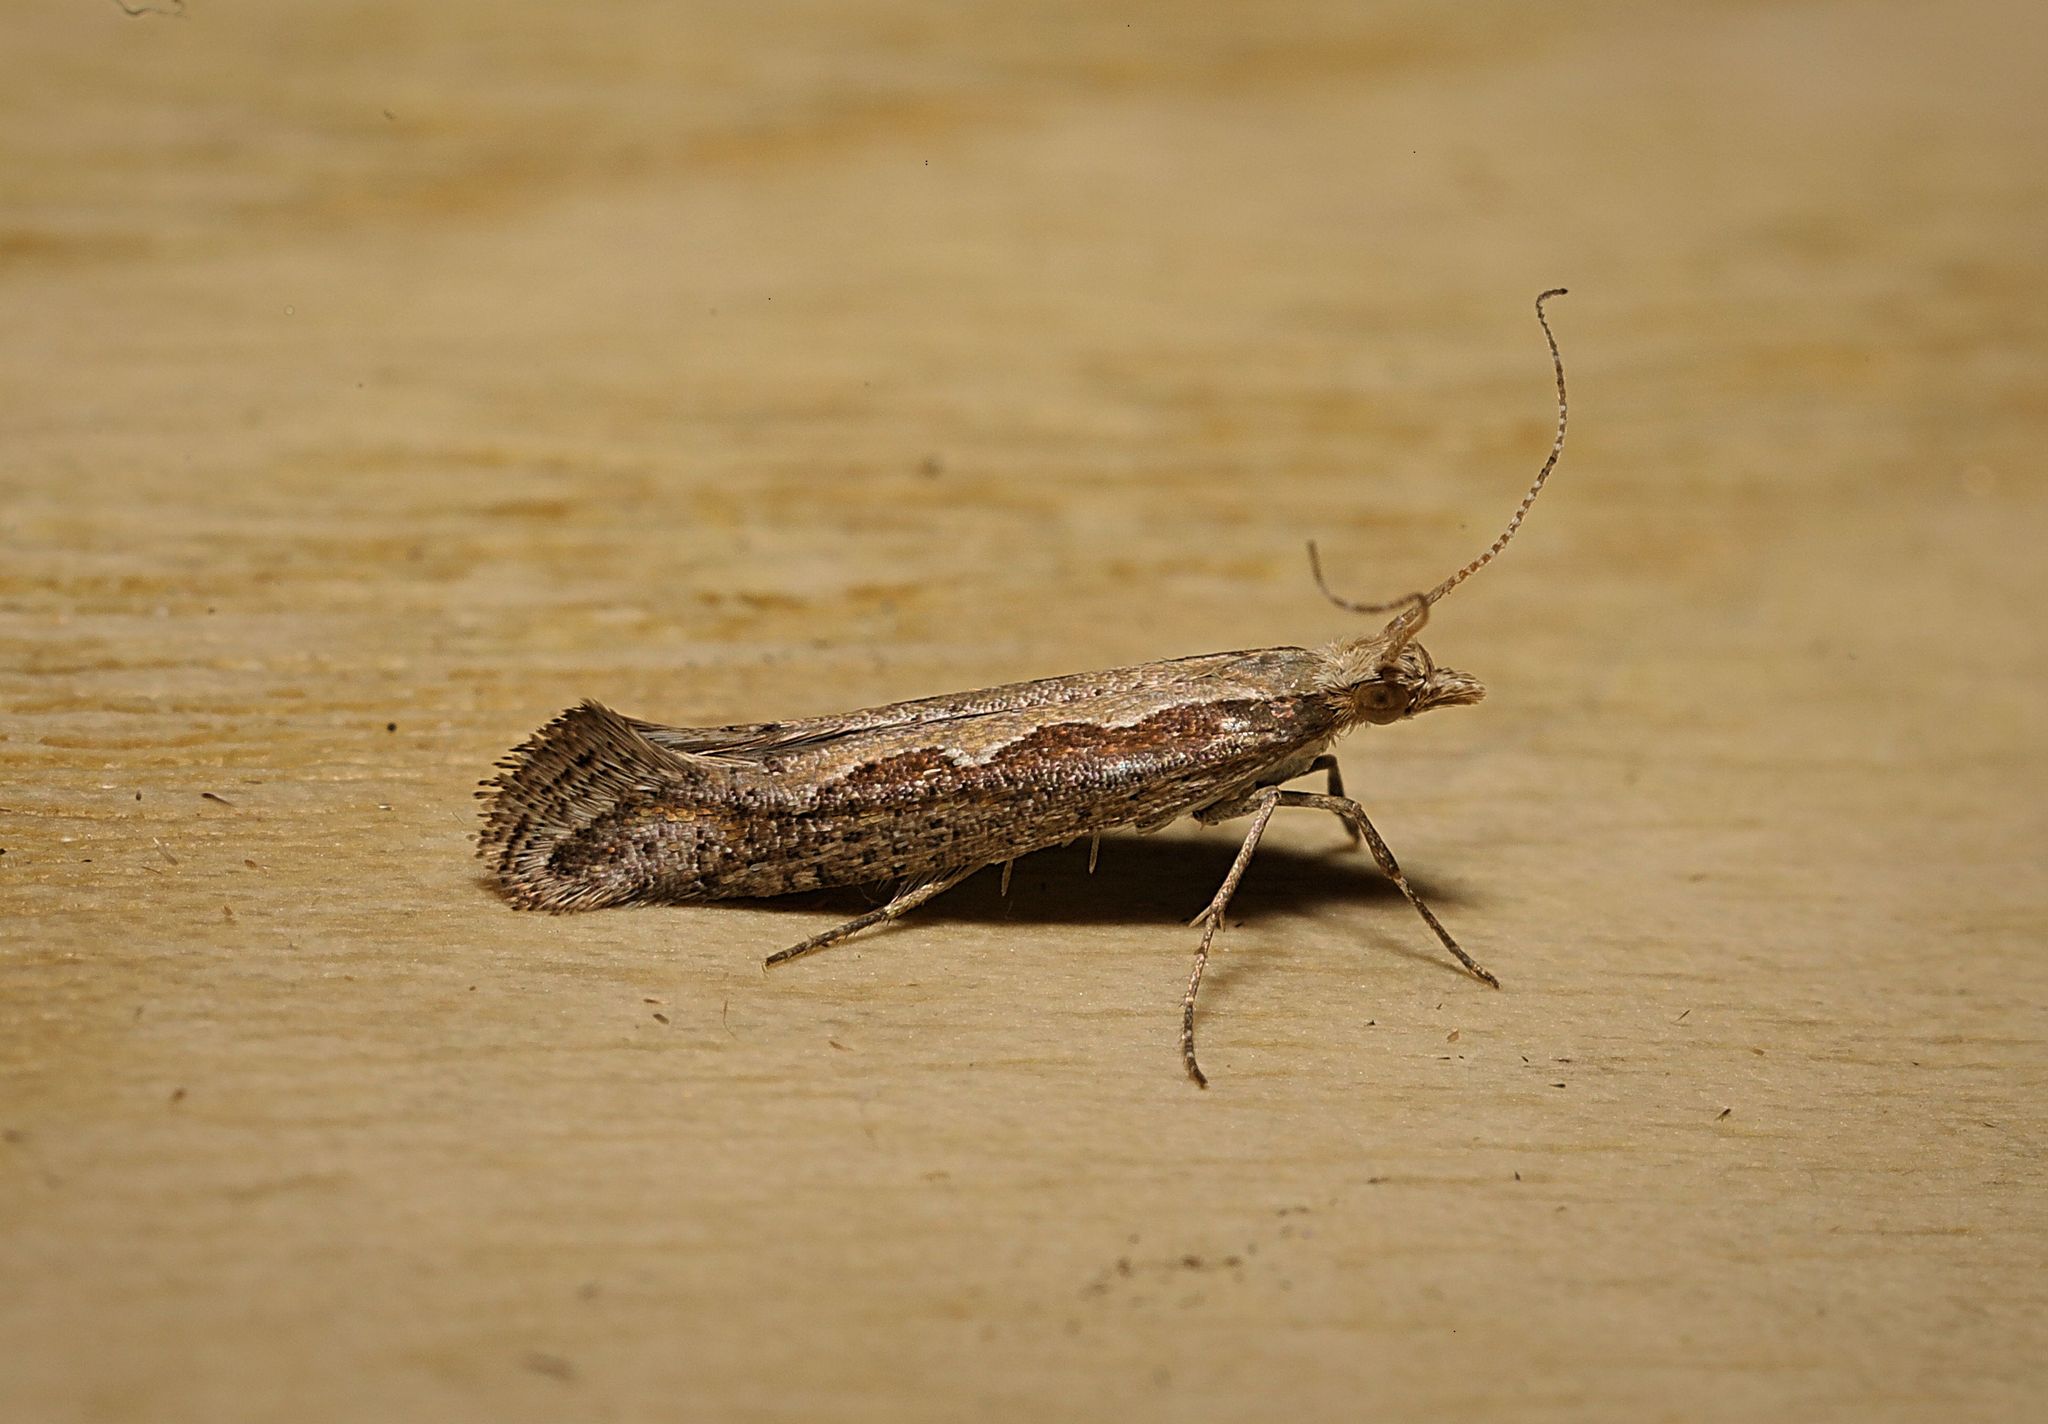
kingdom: Animalia
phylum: Arthropoda
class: Insecta
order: Lepidoptera
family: Plutellidae
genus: Plutella
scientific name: Plutella xylostella
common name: Diamond-back moth
